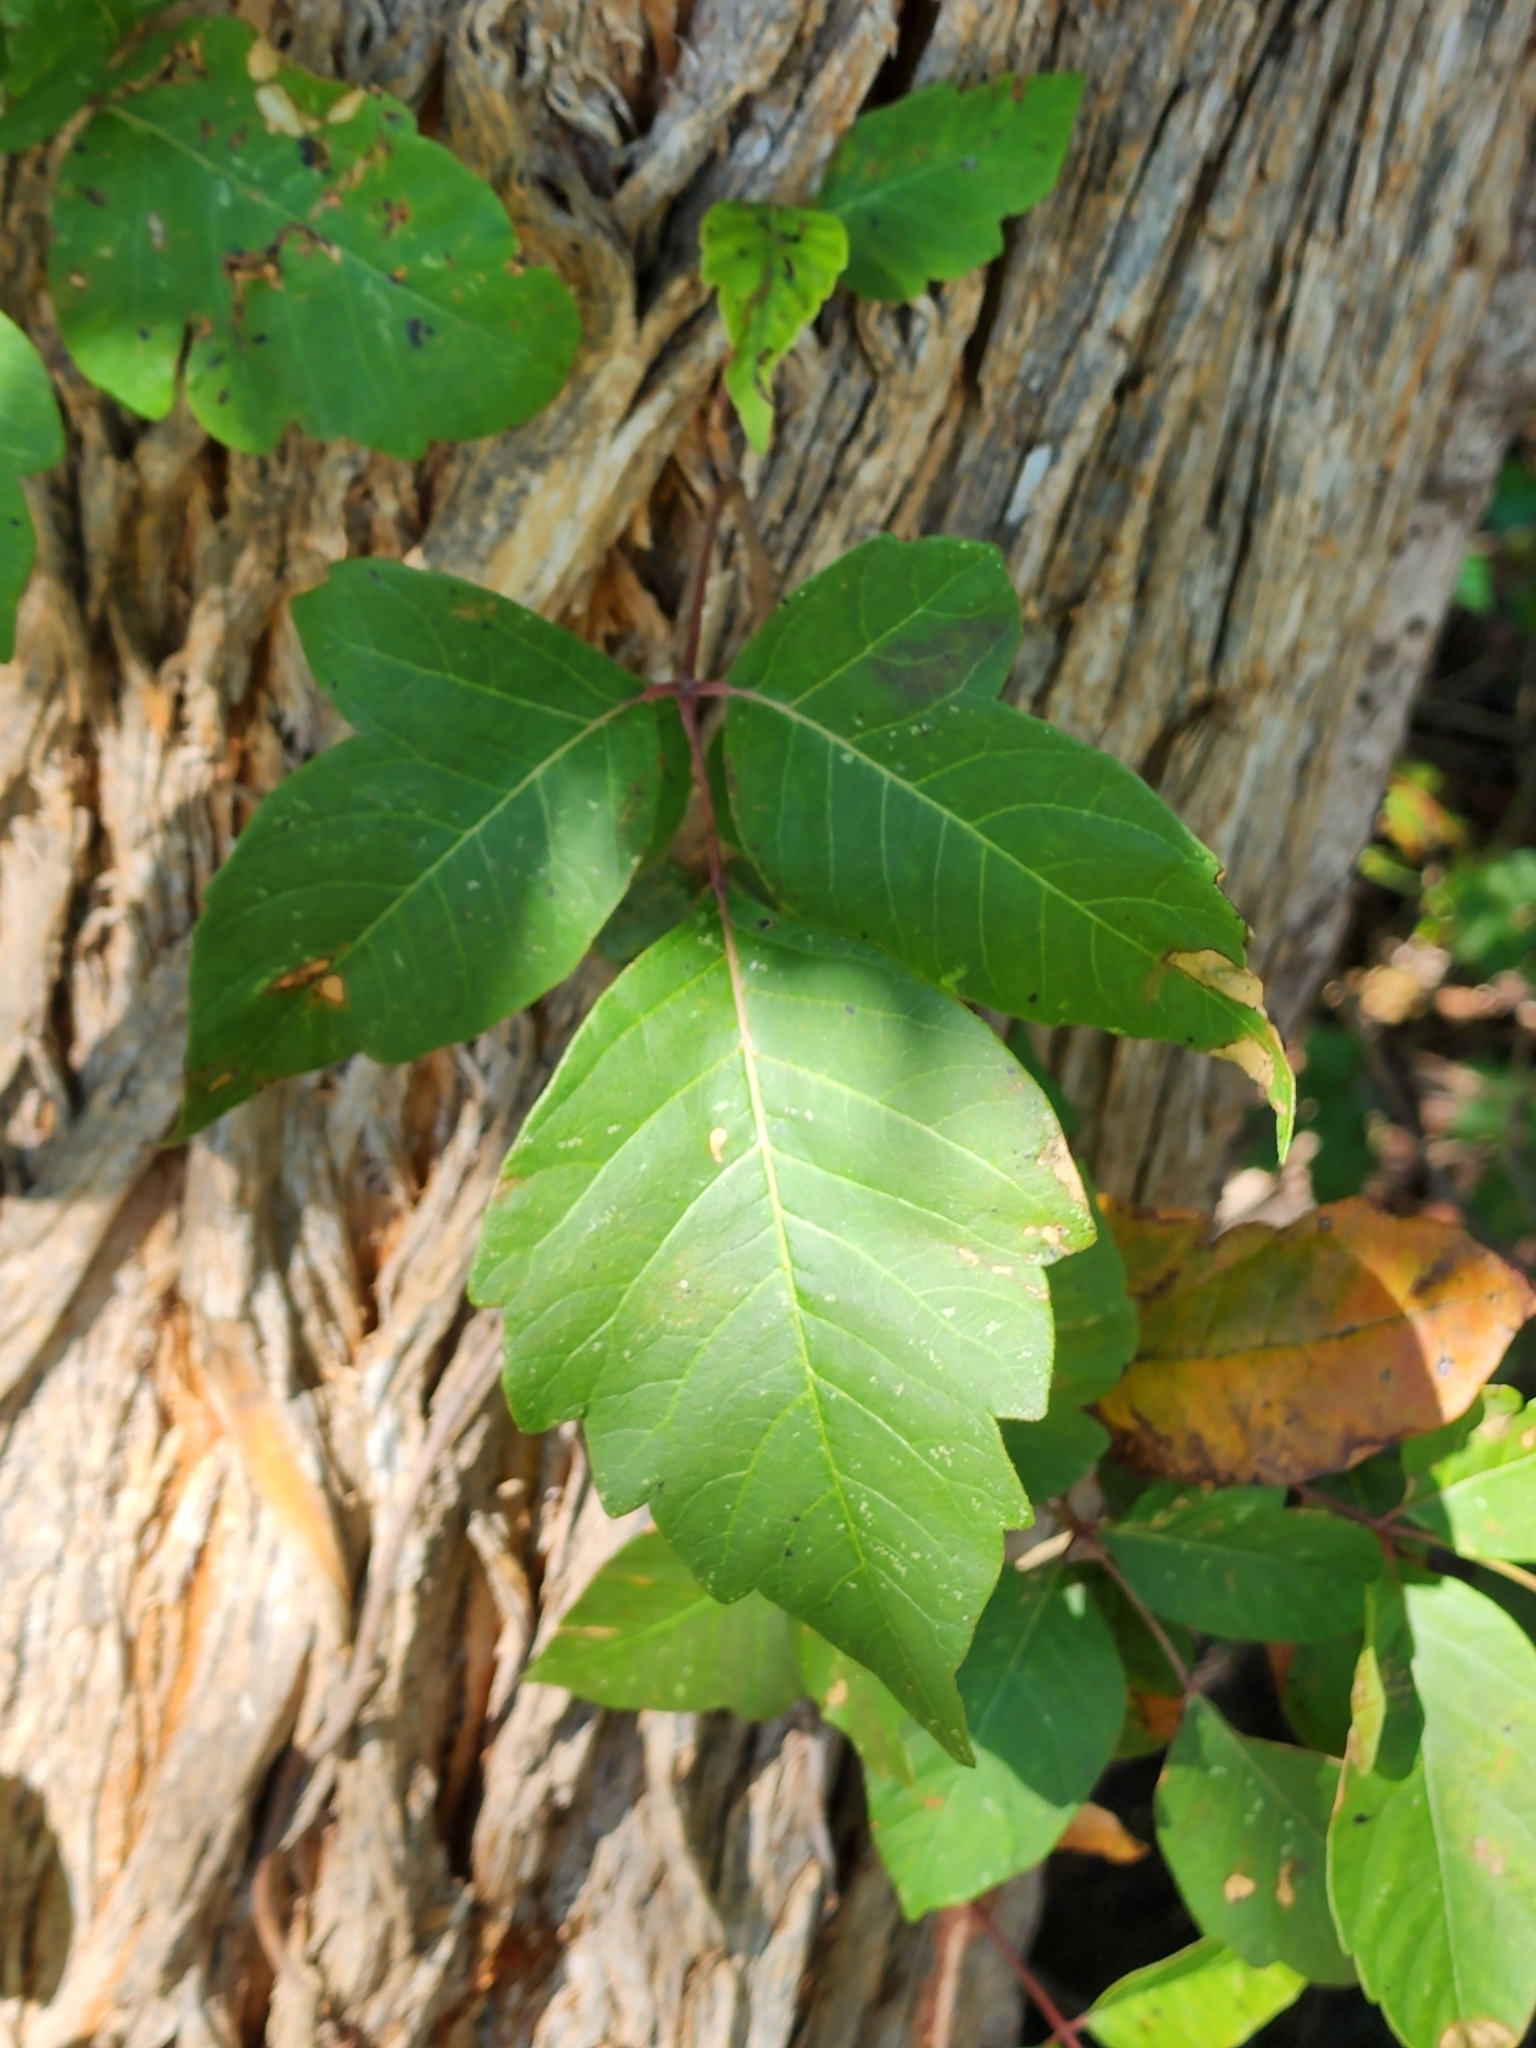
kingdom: Plantae
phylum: Tracheophyta
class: Magnoliopsida
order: Sapindales
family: Anacardiaceae
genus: Toxicodendron
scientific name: Toxicodendron radicans
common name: Poison ivy
